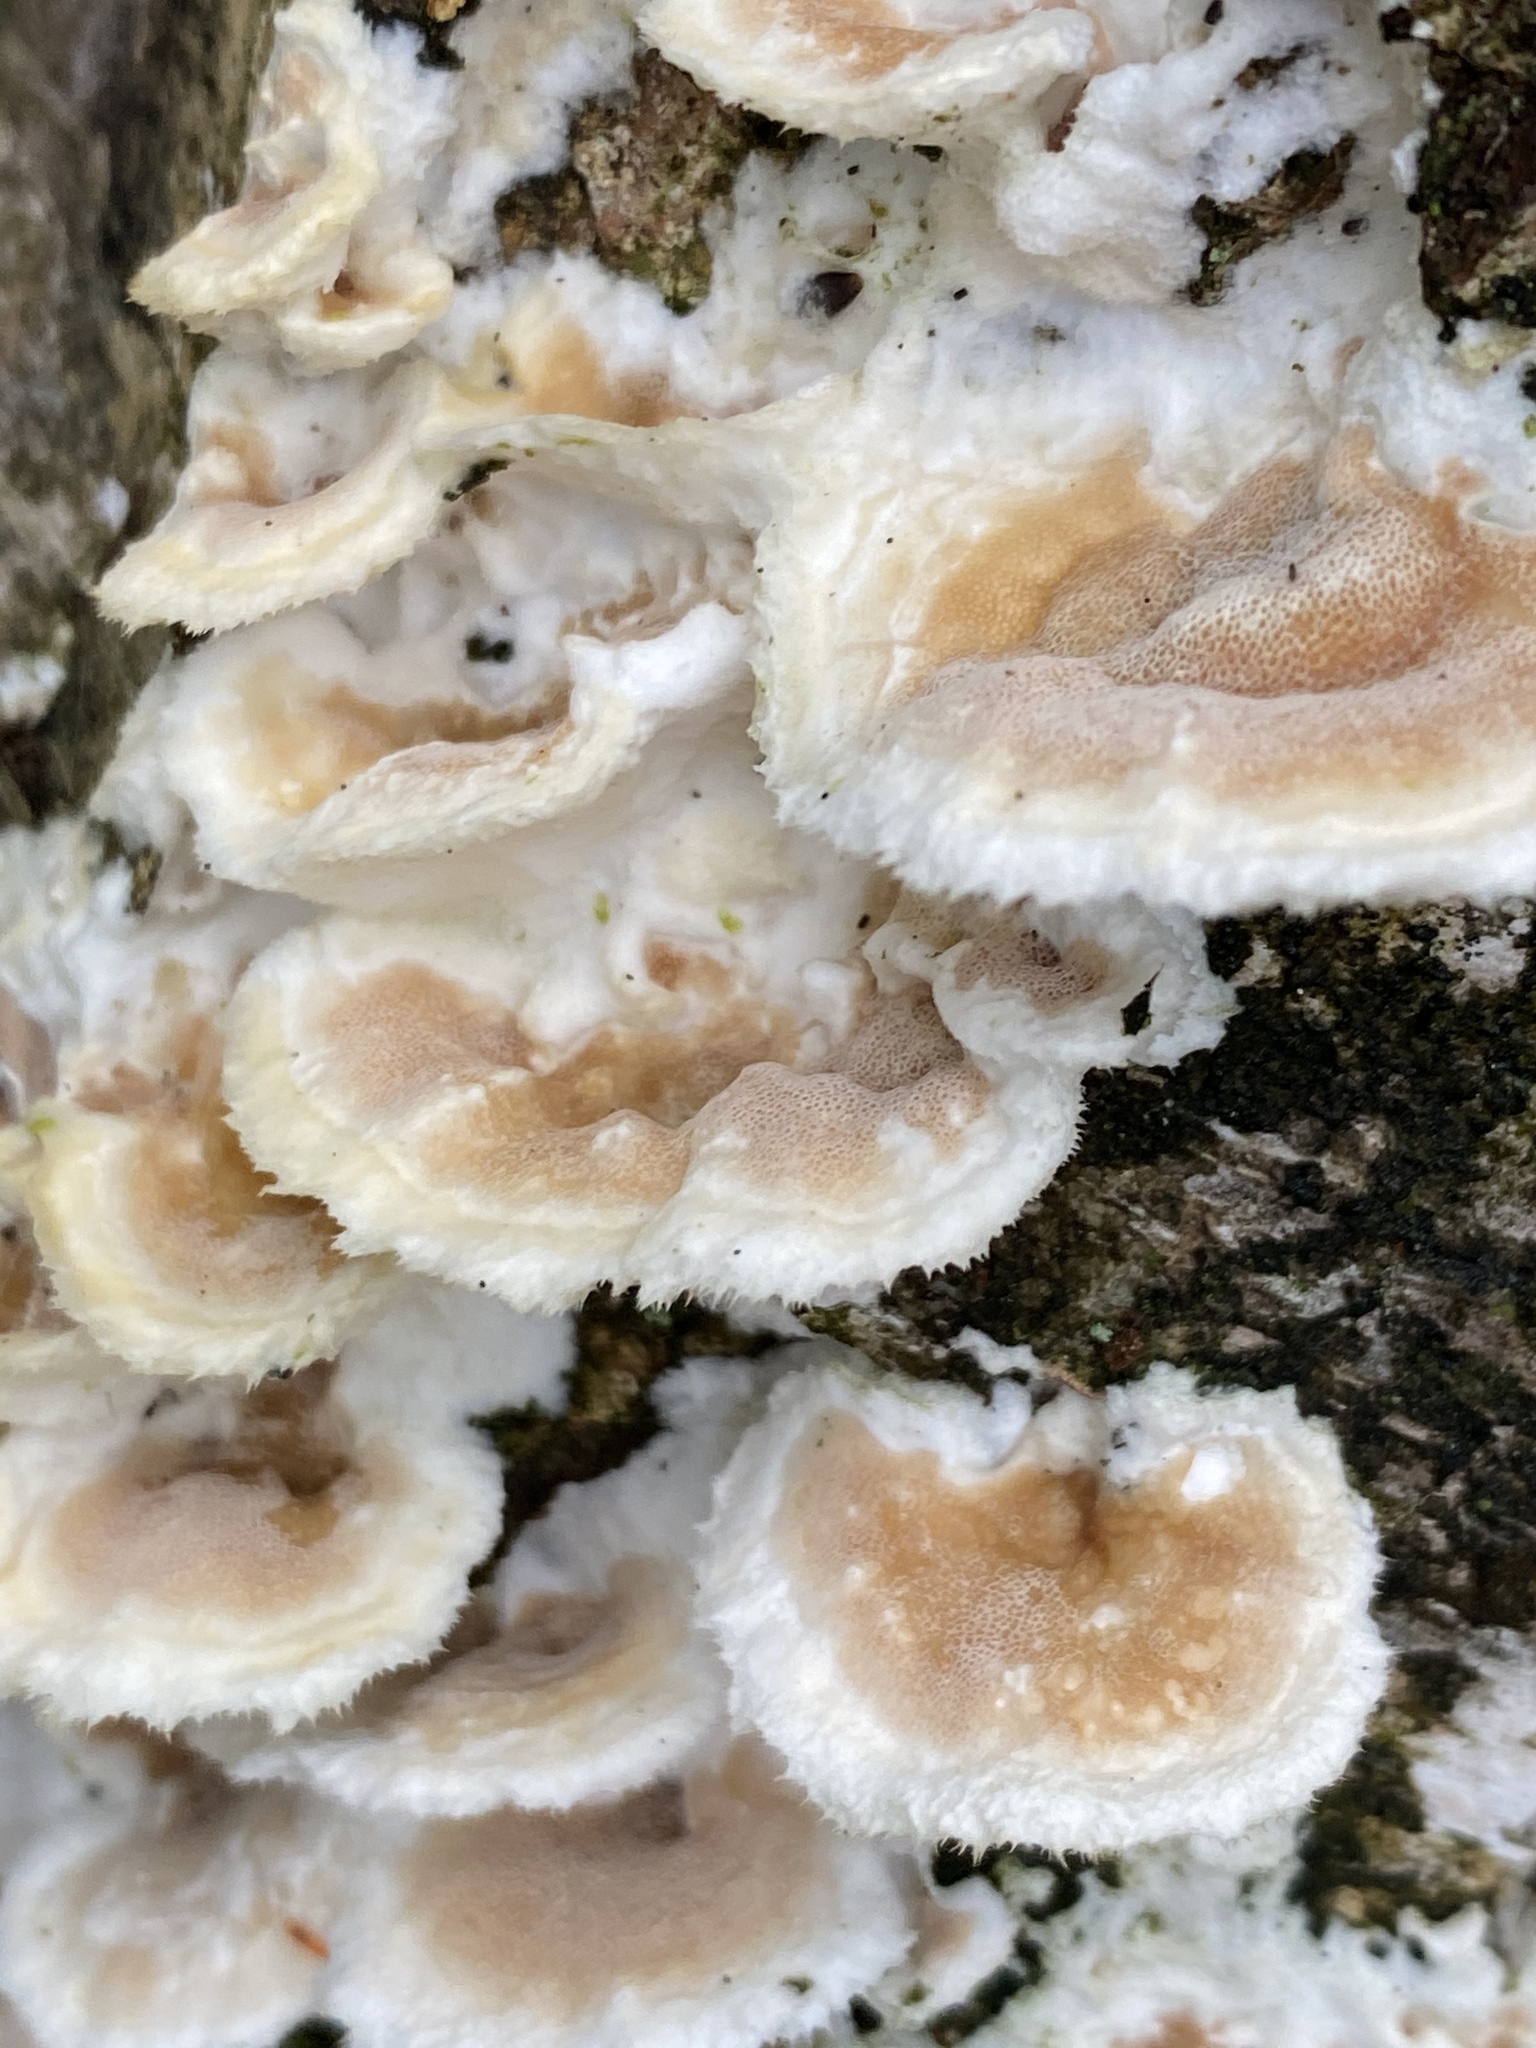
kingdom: Fungi
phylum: Basidiomycota
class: Agaricomycetes
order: Polyporales
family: Irpicaceae
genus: Vitreoporus
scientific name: Vitreoporus dichrous
